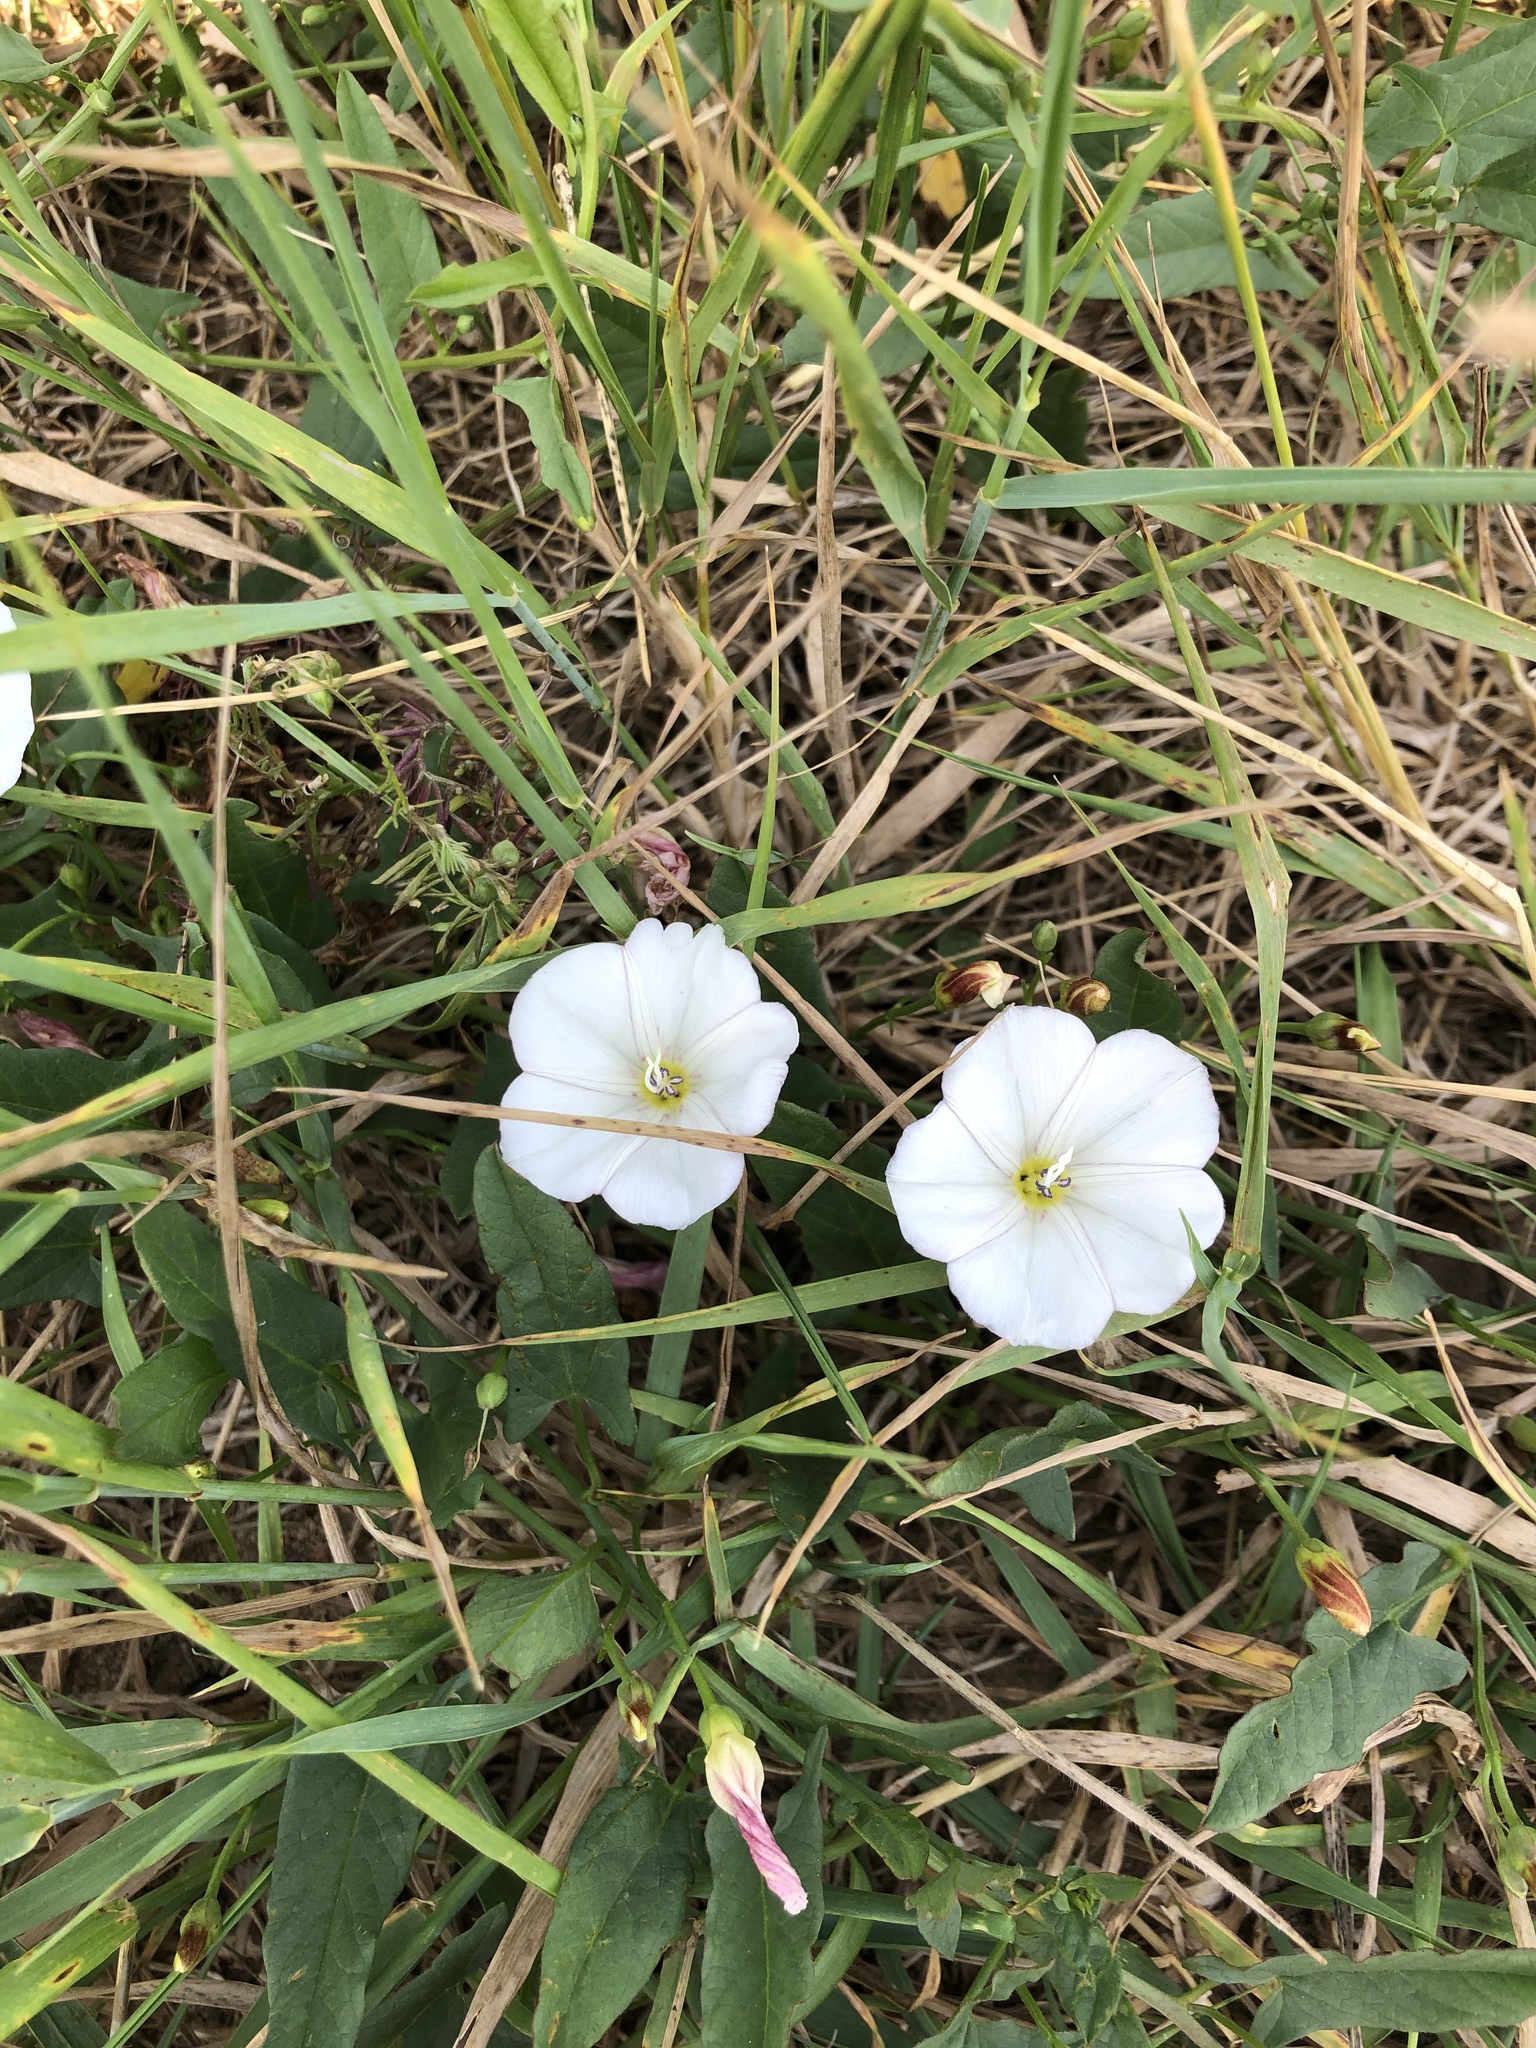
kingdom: Plantae
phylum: Tracheophyta
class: Magnoliopsida
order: Solanales
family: Convolvulaceae
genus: Convolvulus
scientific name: Convolvulus arvensis
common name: Field bindweed
